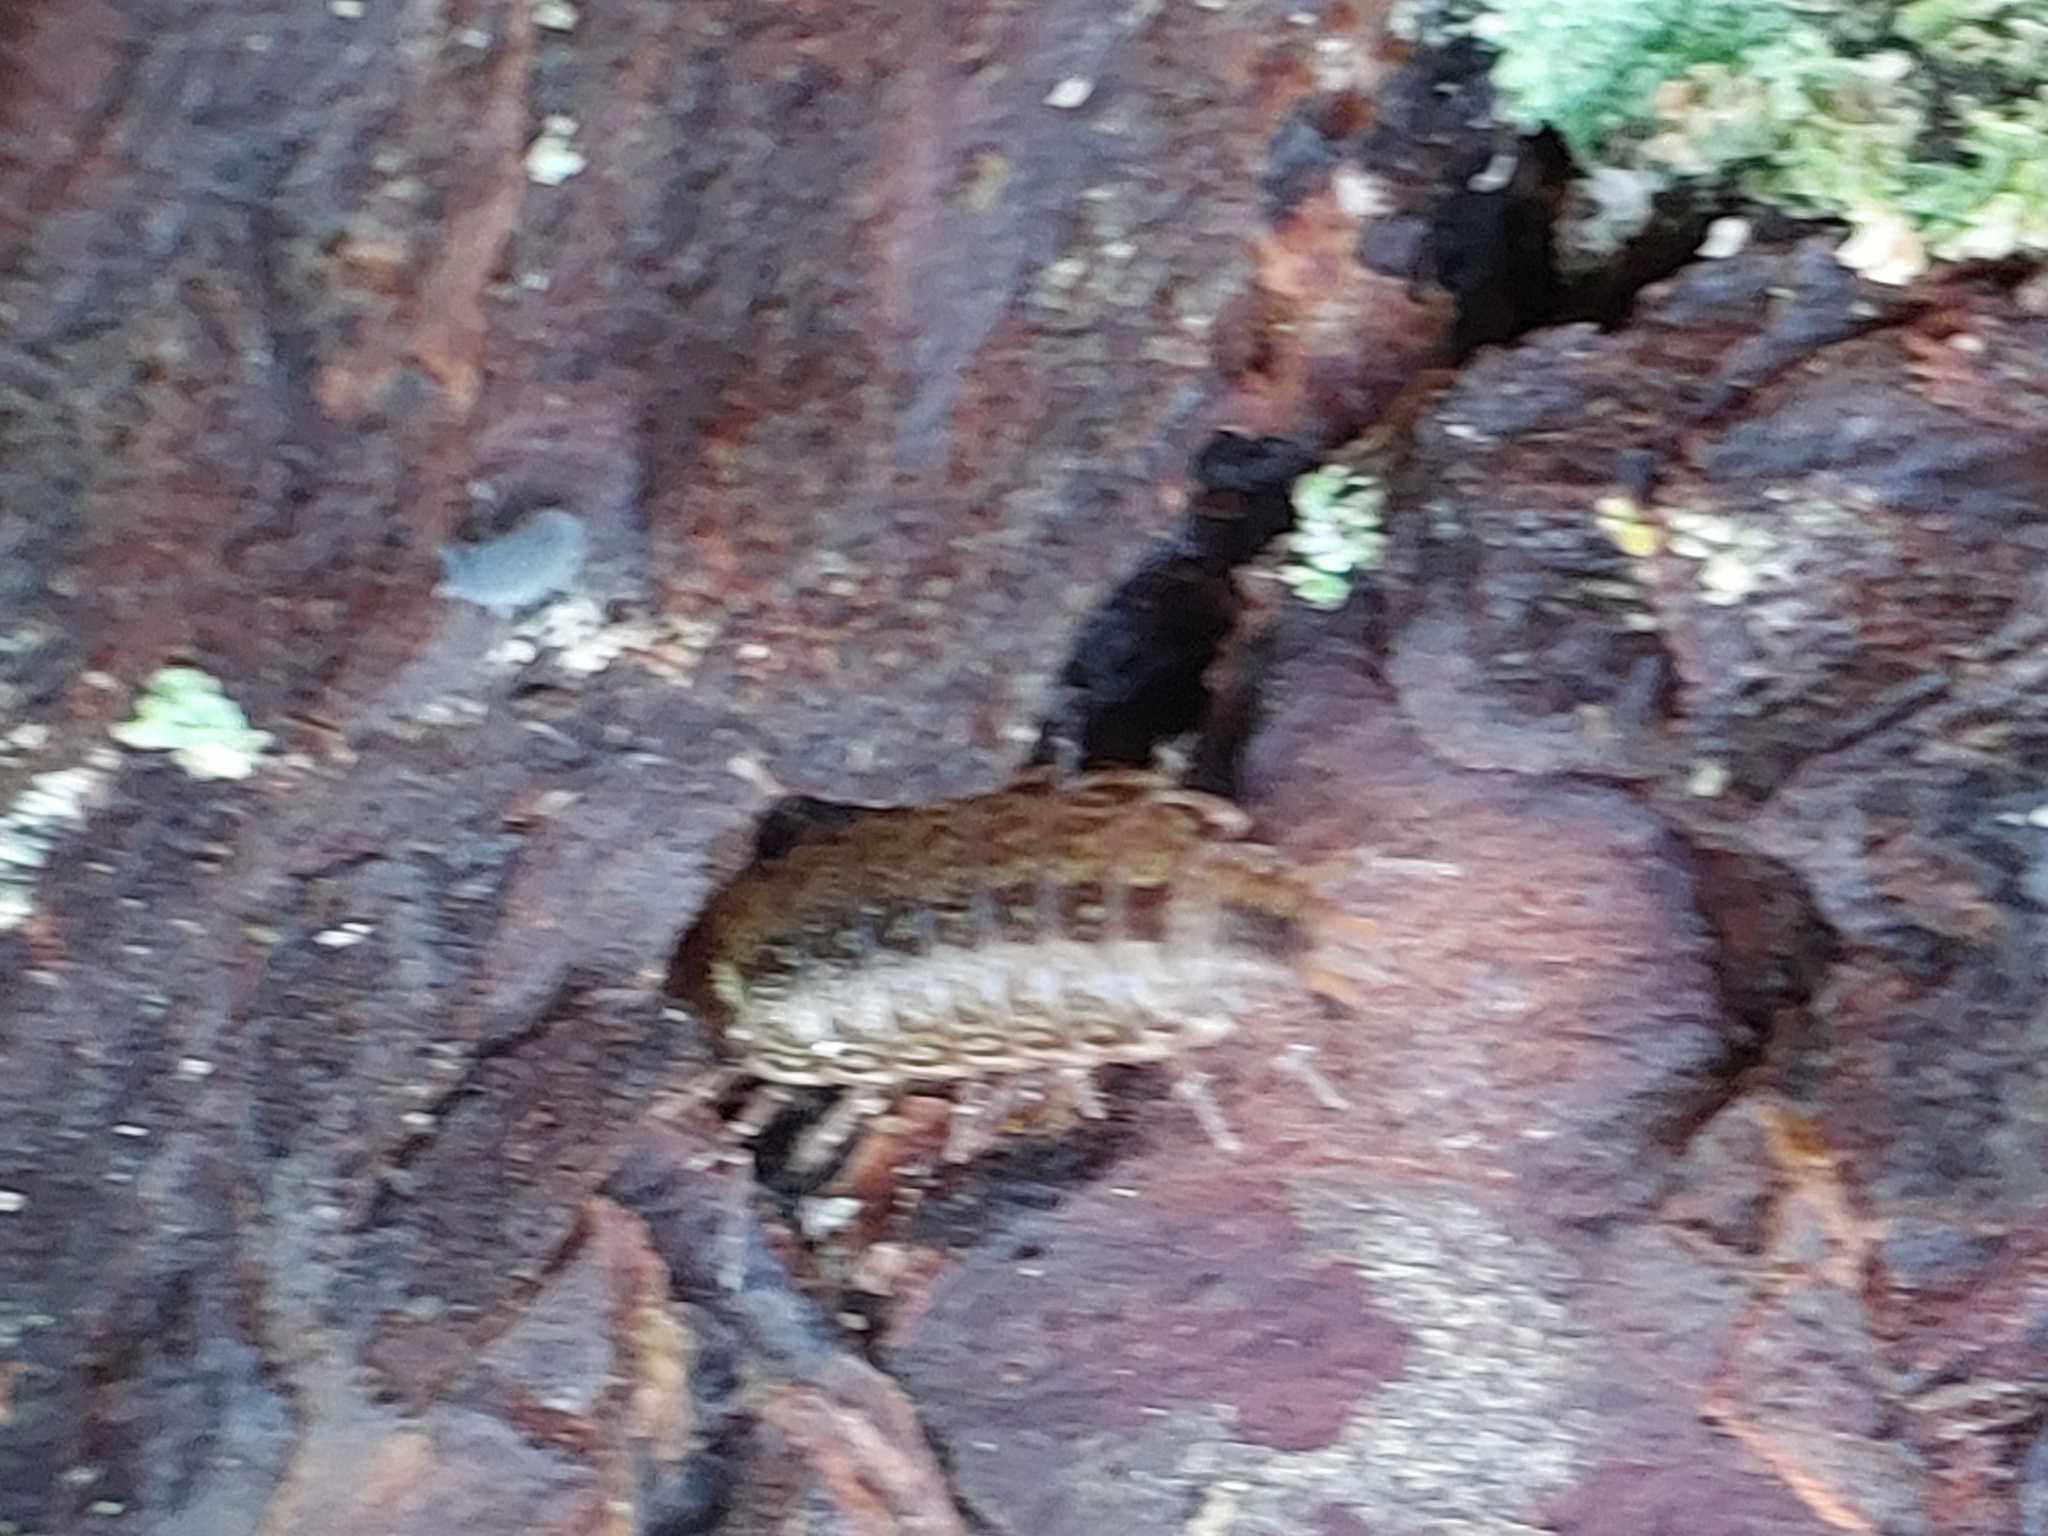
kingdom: Animalia
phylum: Arthropoda
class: Malacostraca
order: Isopoda
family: Philosciidae
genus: Philoscia
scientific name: Philoscia muscorum
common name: Common striped woodlouse
